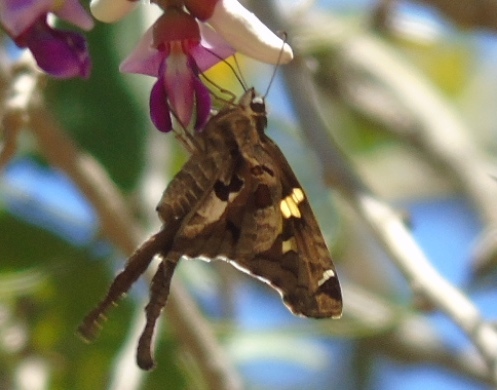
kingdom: Animalia
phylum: Arthropoda
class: Insecta
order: Lepidoptera
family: Hesperiidae
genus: Chioides
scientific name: Chioides zilpa
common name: Zilpa longtail
